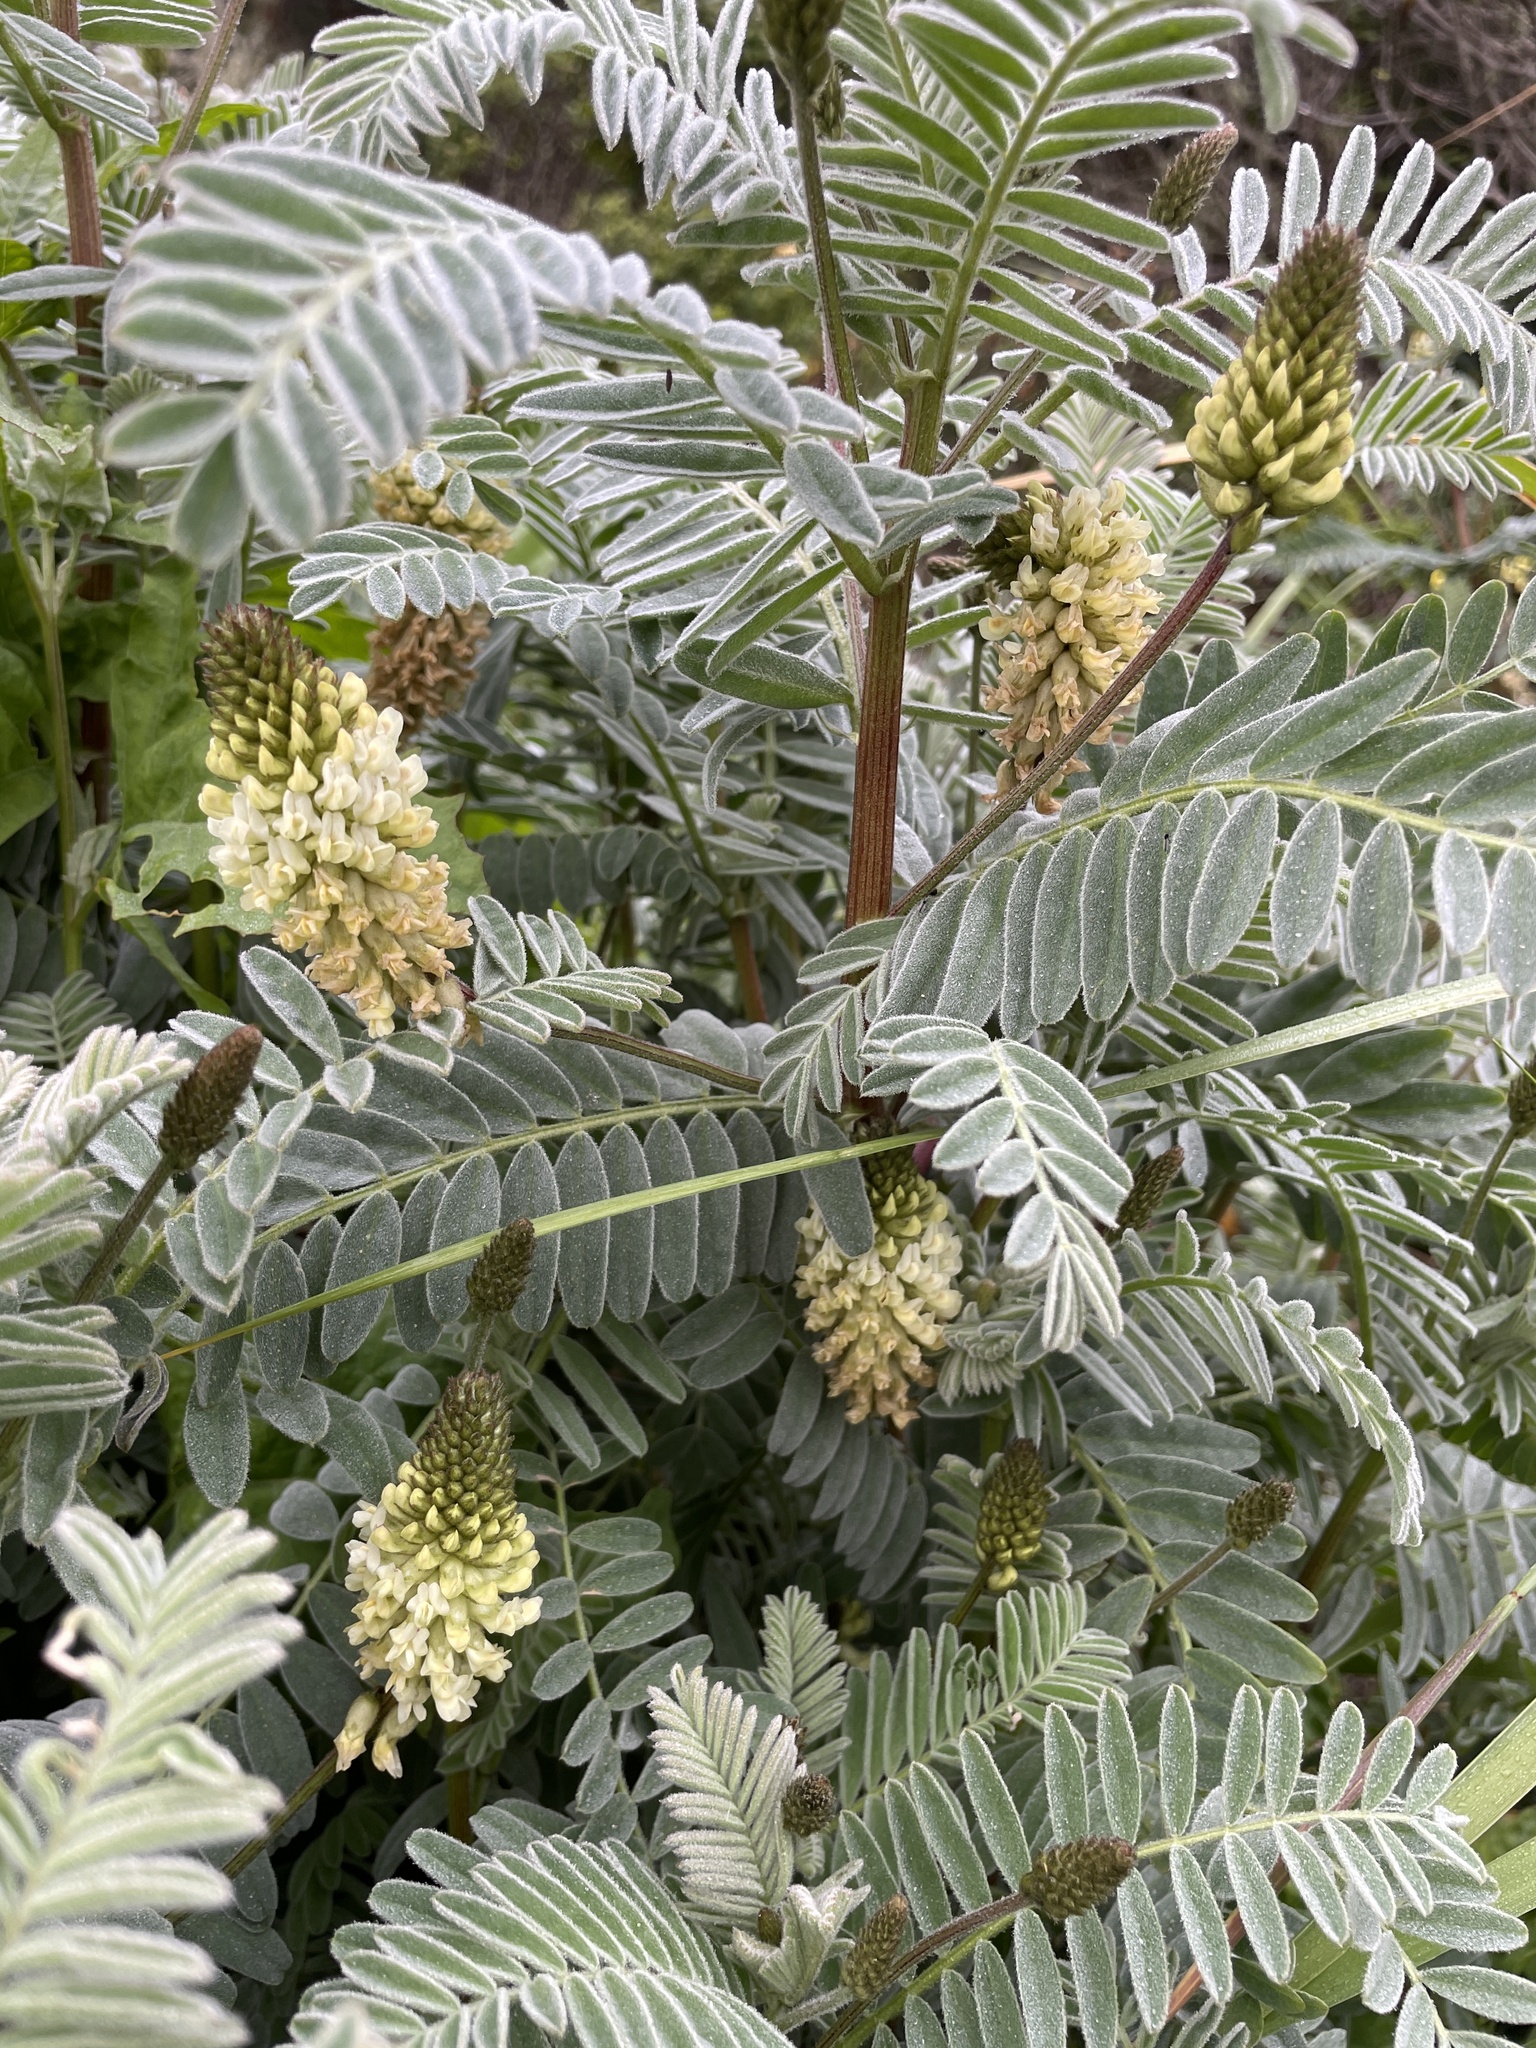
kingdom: Plantae
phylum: Tracheophyta
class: Magnoliopsida
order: Fabales
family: Fabaceae
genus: Astragalus
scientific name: Astragalus pycnostachyus
